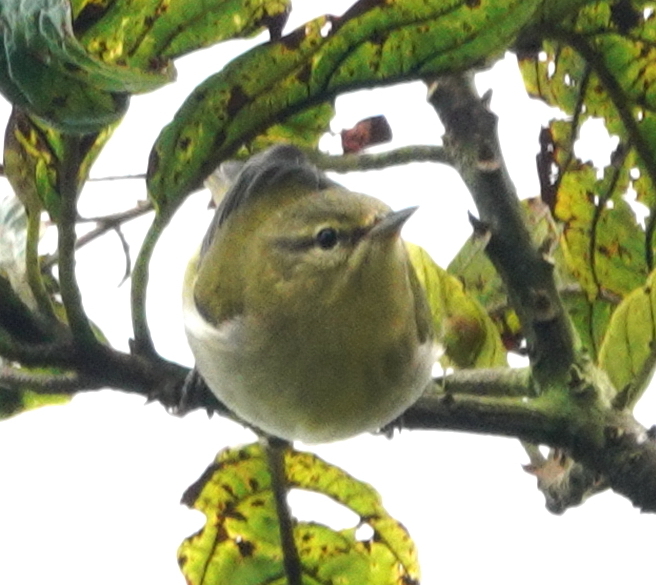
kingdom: Animalia
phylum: Chordata
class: Aves
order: Passeriformes
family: Parulidae
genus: Leiothlypis
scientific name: Leiothlypis peregrina
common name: Tennessee warbler
